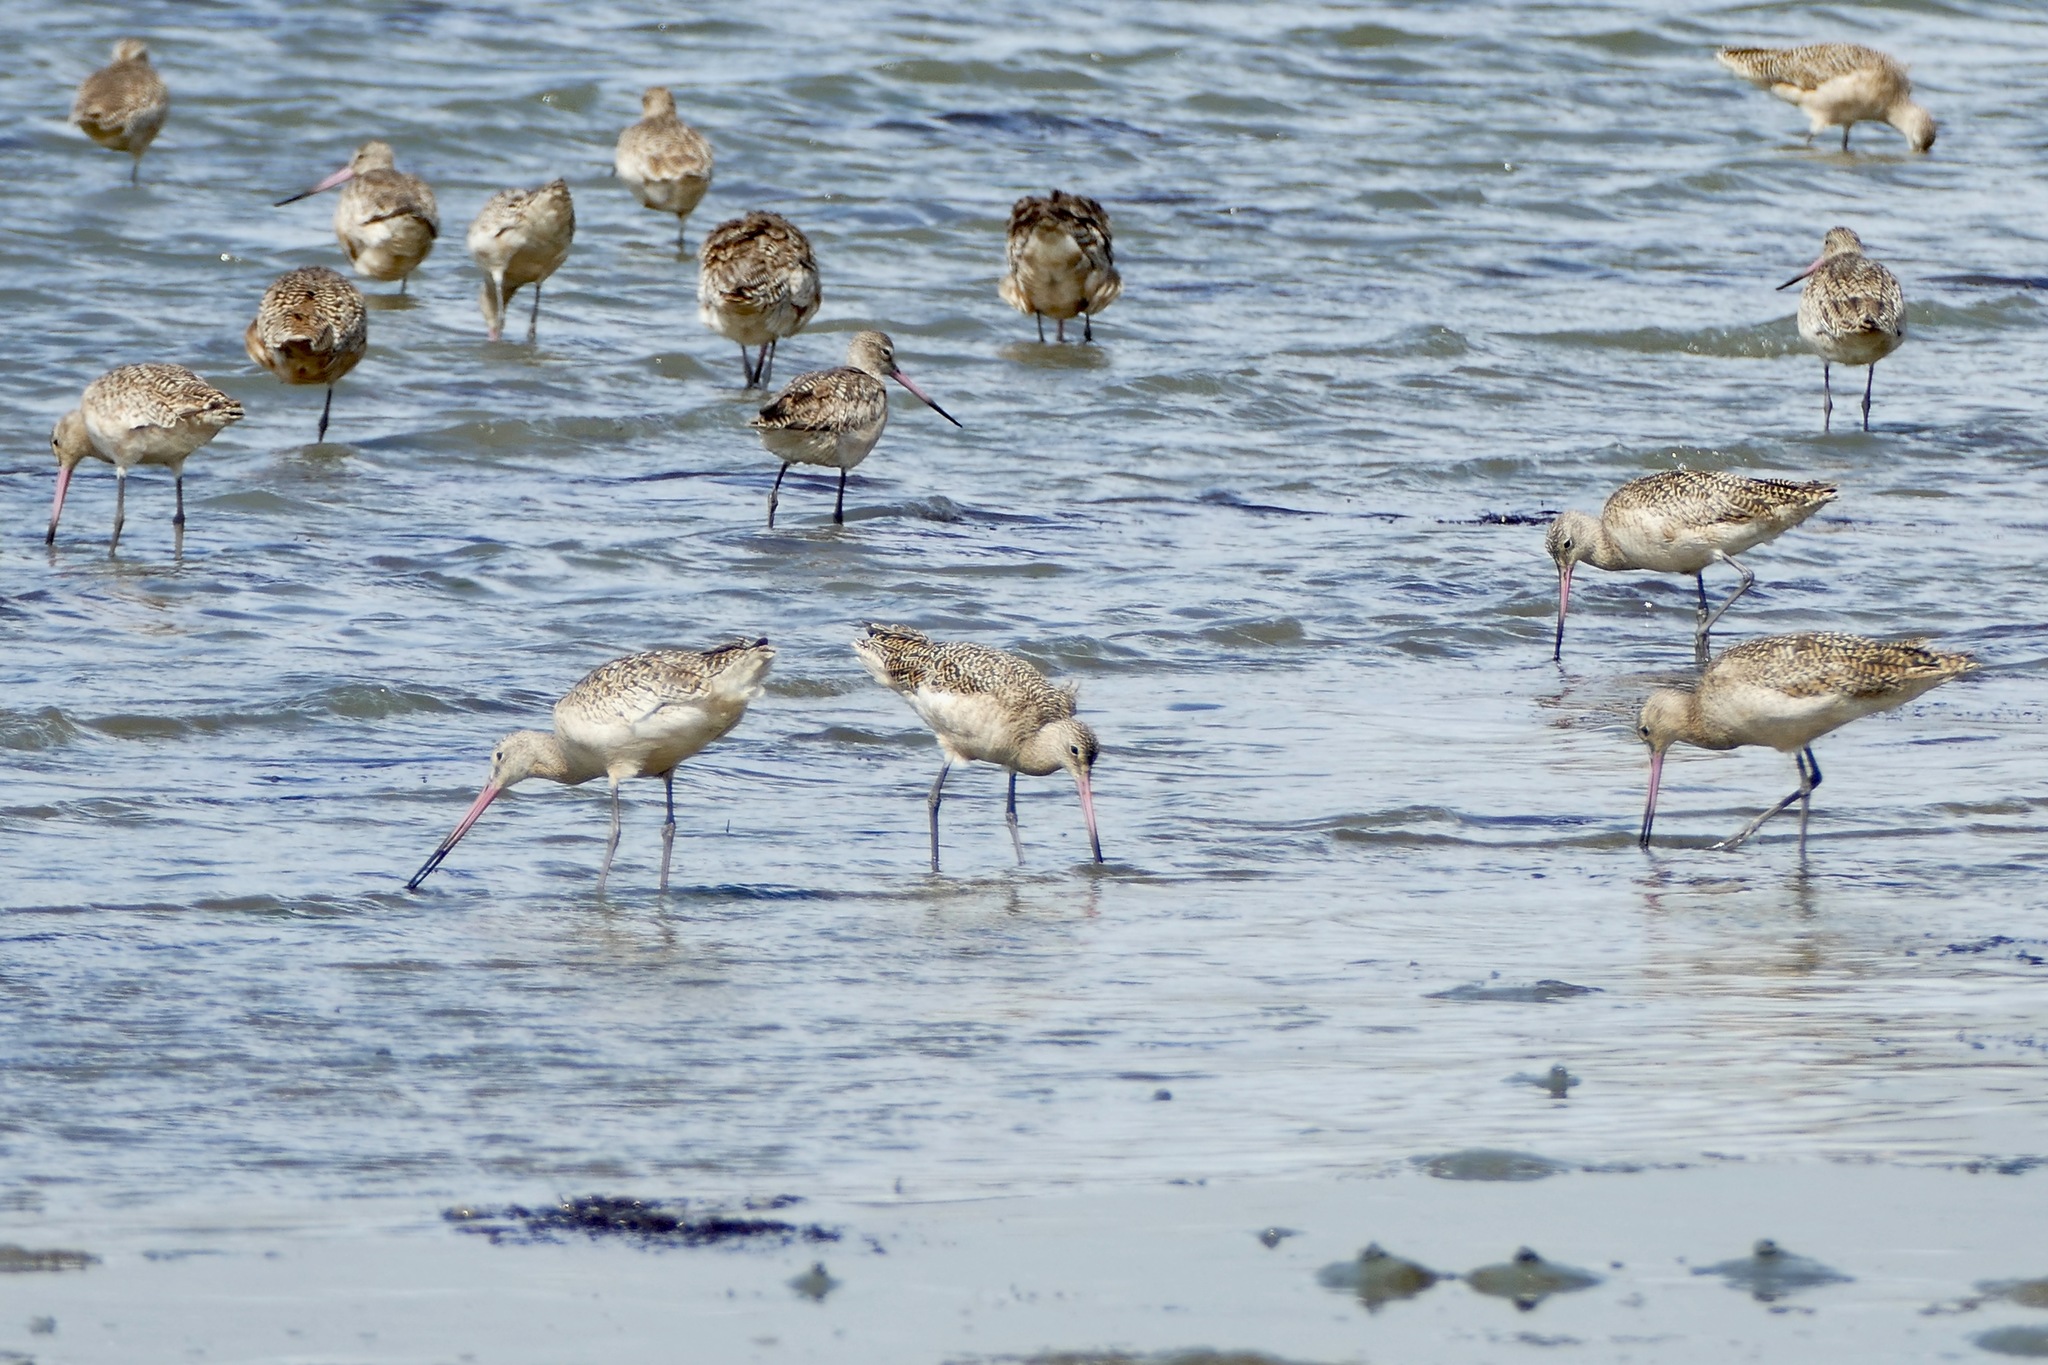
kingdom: Animalia
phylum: Chordata
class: Aves
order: Charadriiformes
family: Scolopacidae
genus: Limosa
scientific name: Limosa fedoa
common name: Marbled godwit
